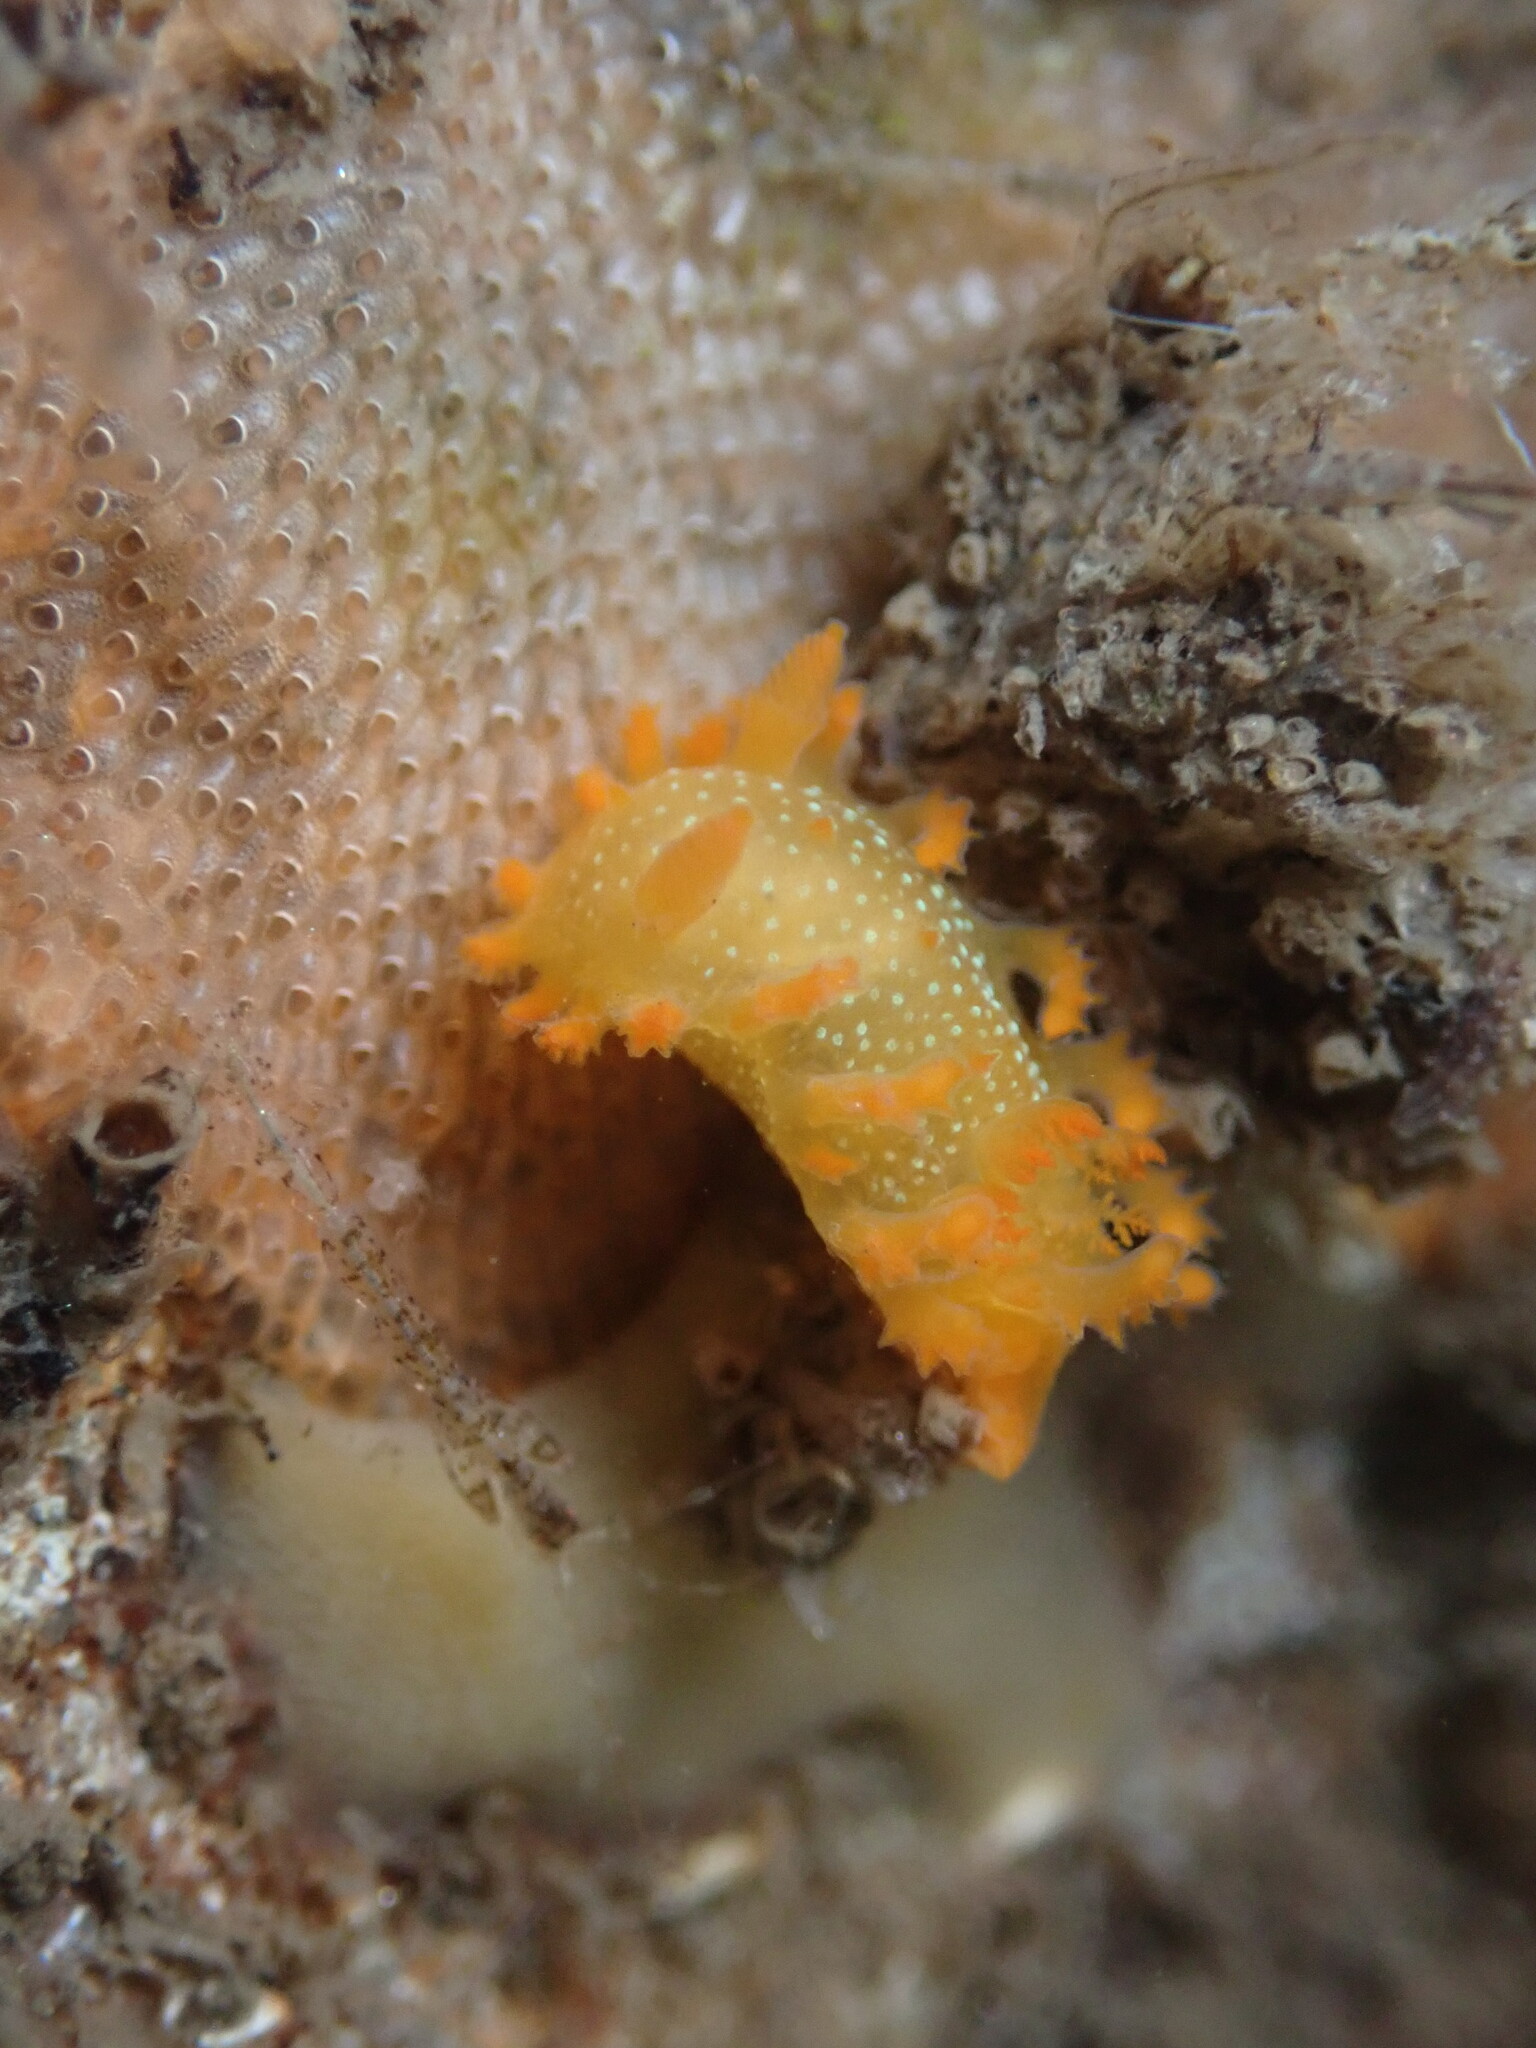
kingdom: Animalia
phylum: Mollusca
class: Gastropoda
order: Nudibranchia
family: Polyceridae
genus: Triopha
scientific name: Triopha maculata
